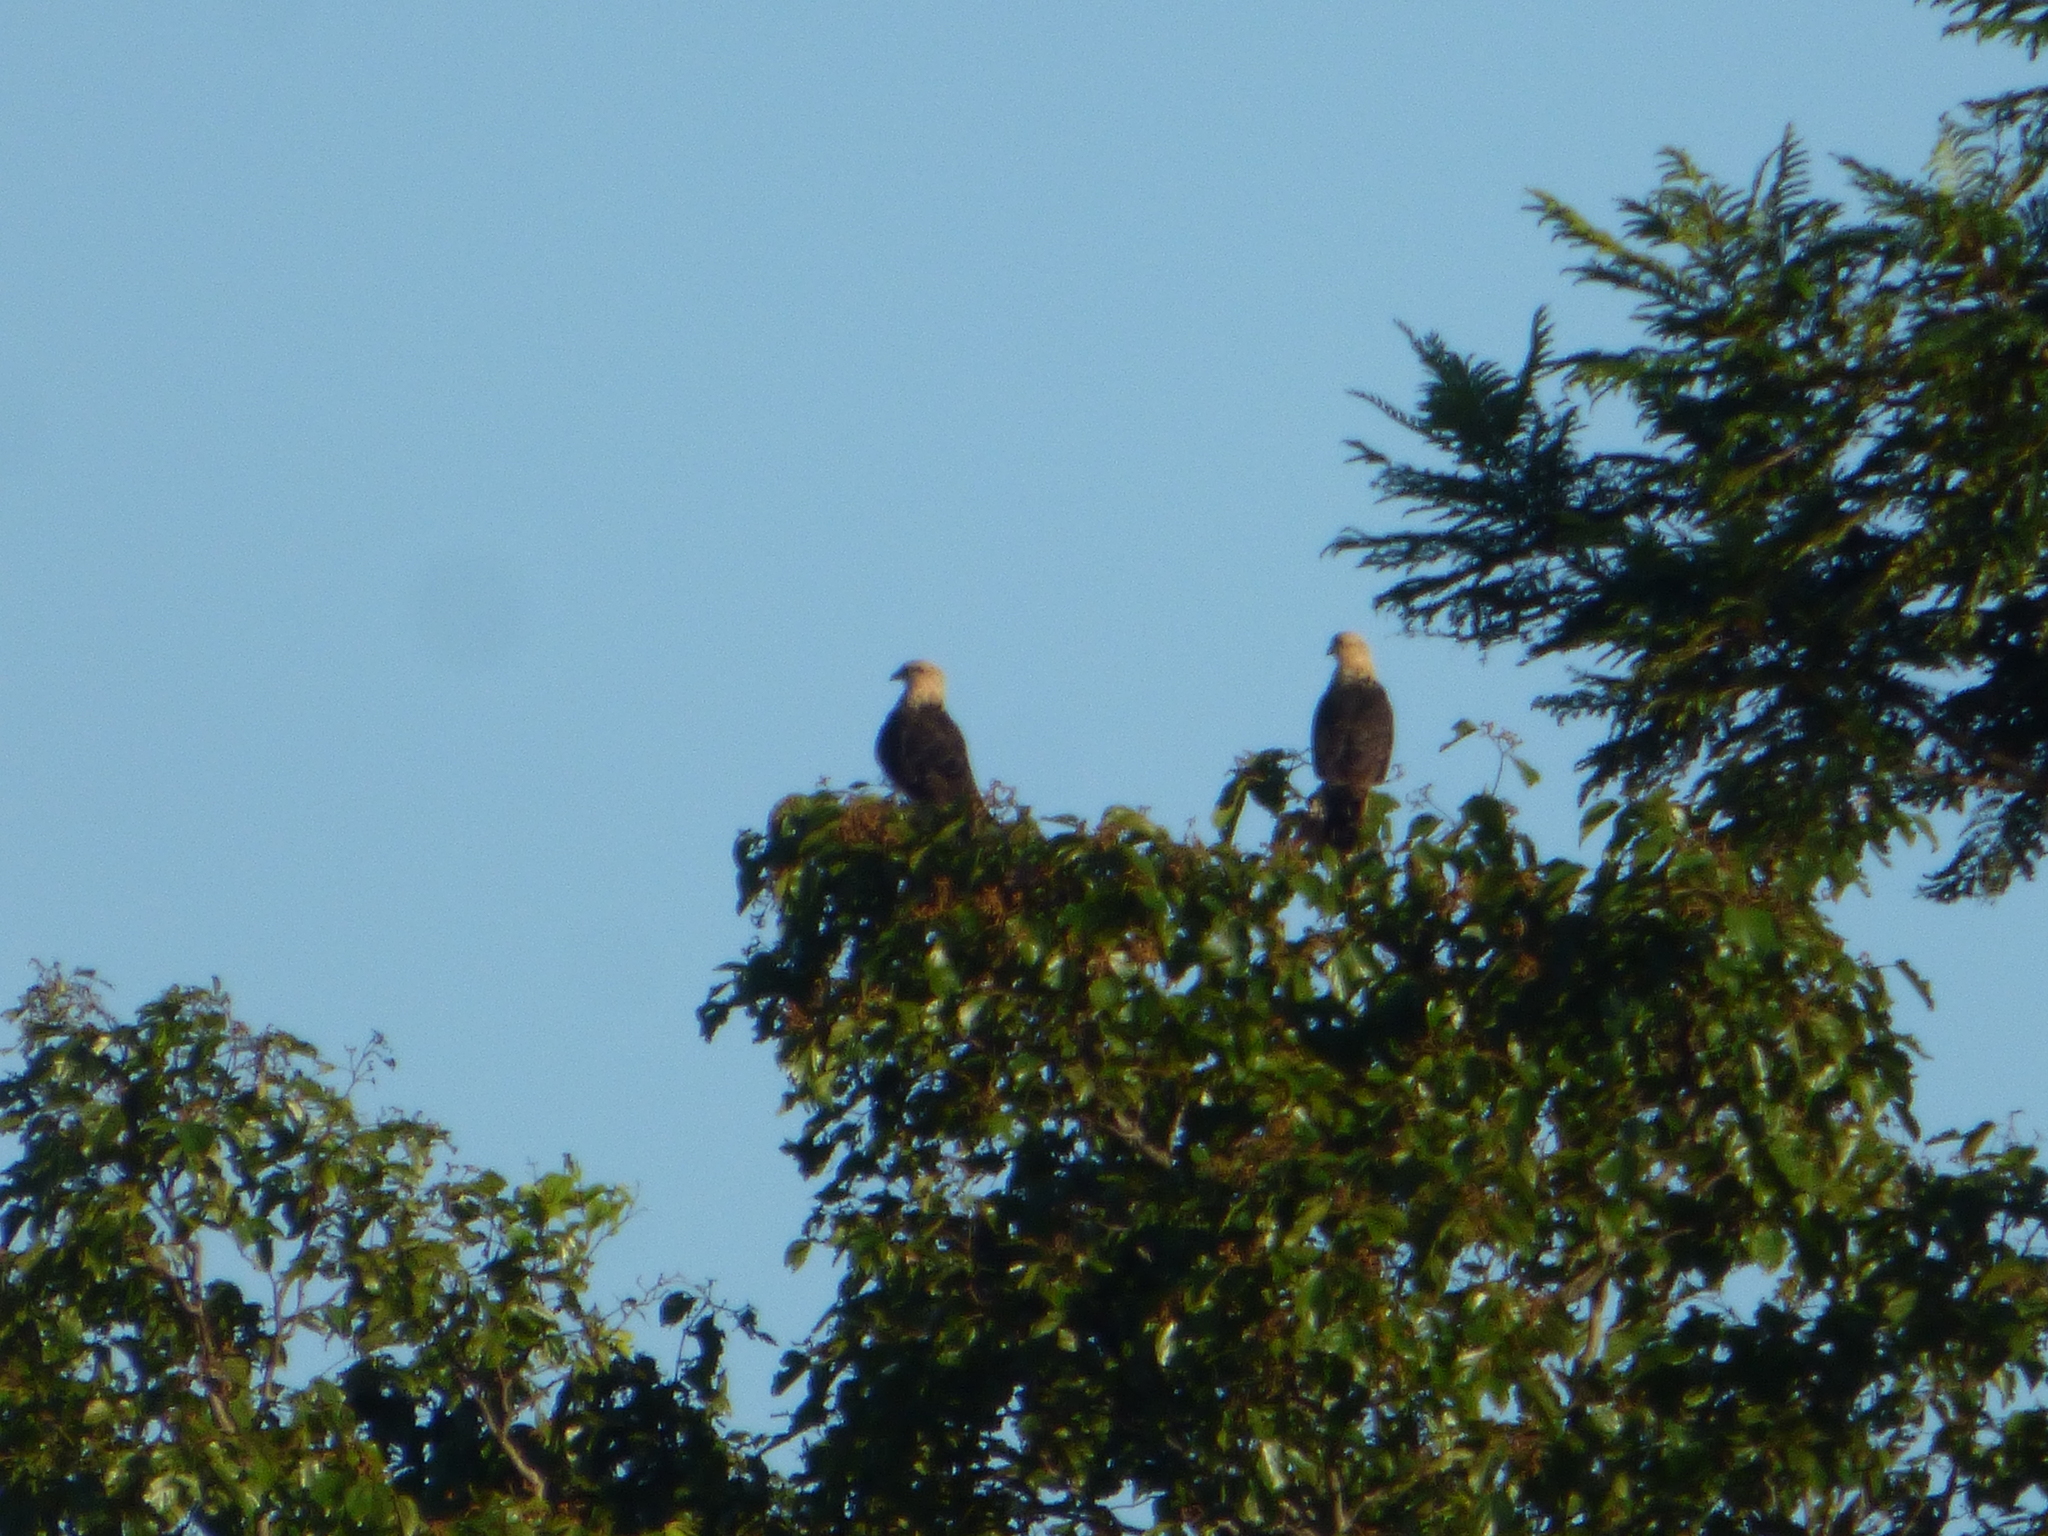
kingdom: Animalia
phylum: Chordata
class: Aves
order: Falconiformes
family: Falconidae
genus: Daptrius
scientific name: Daptrius
